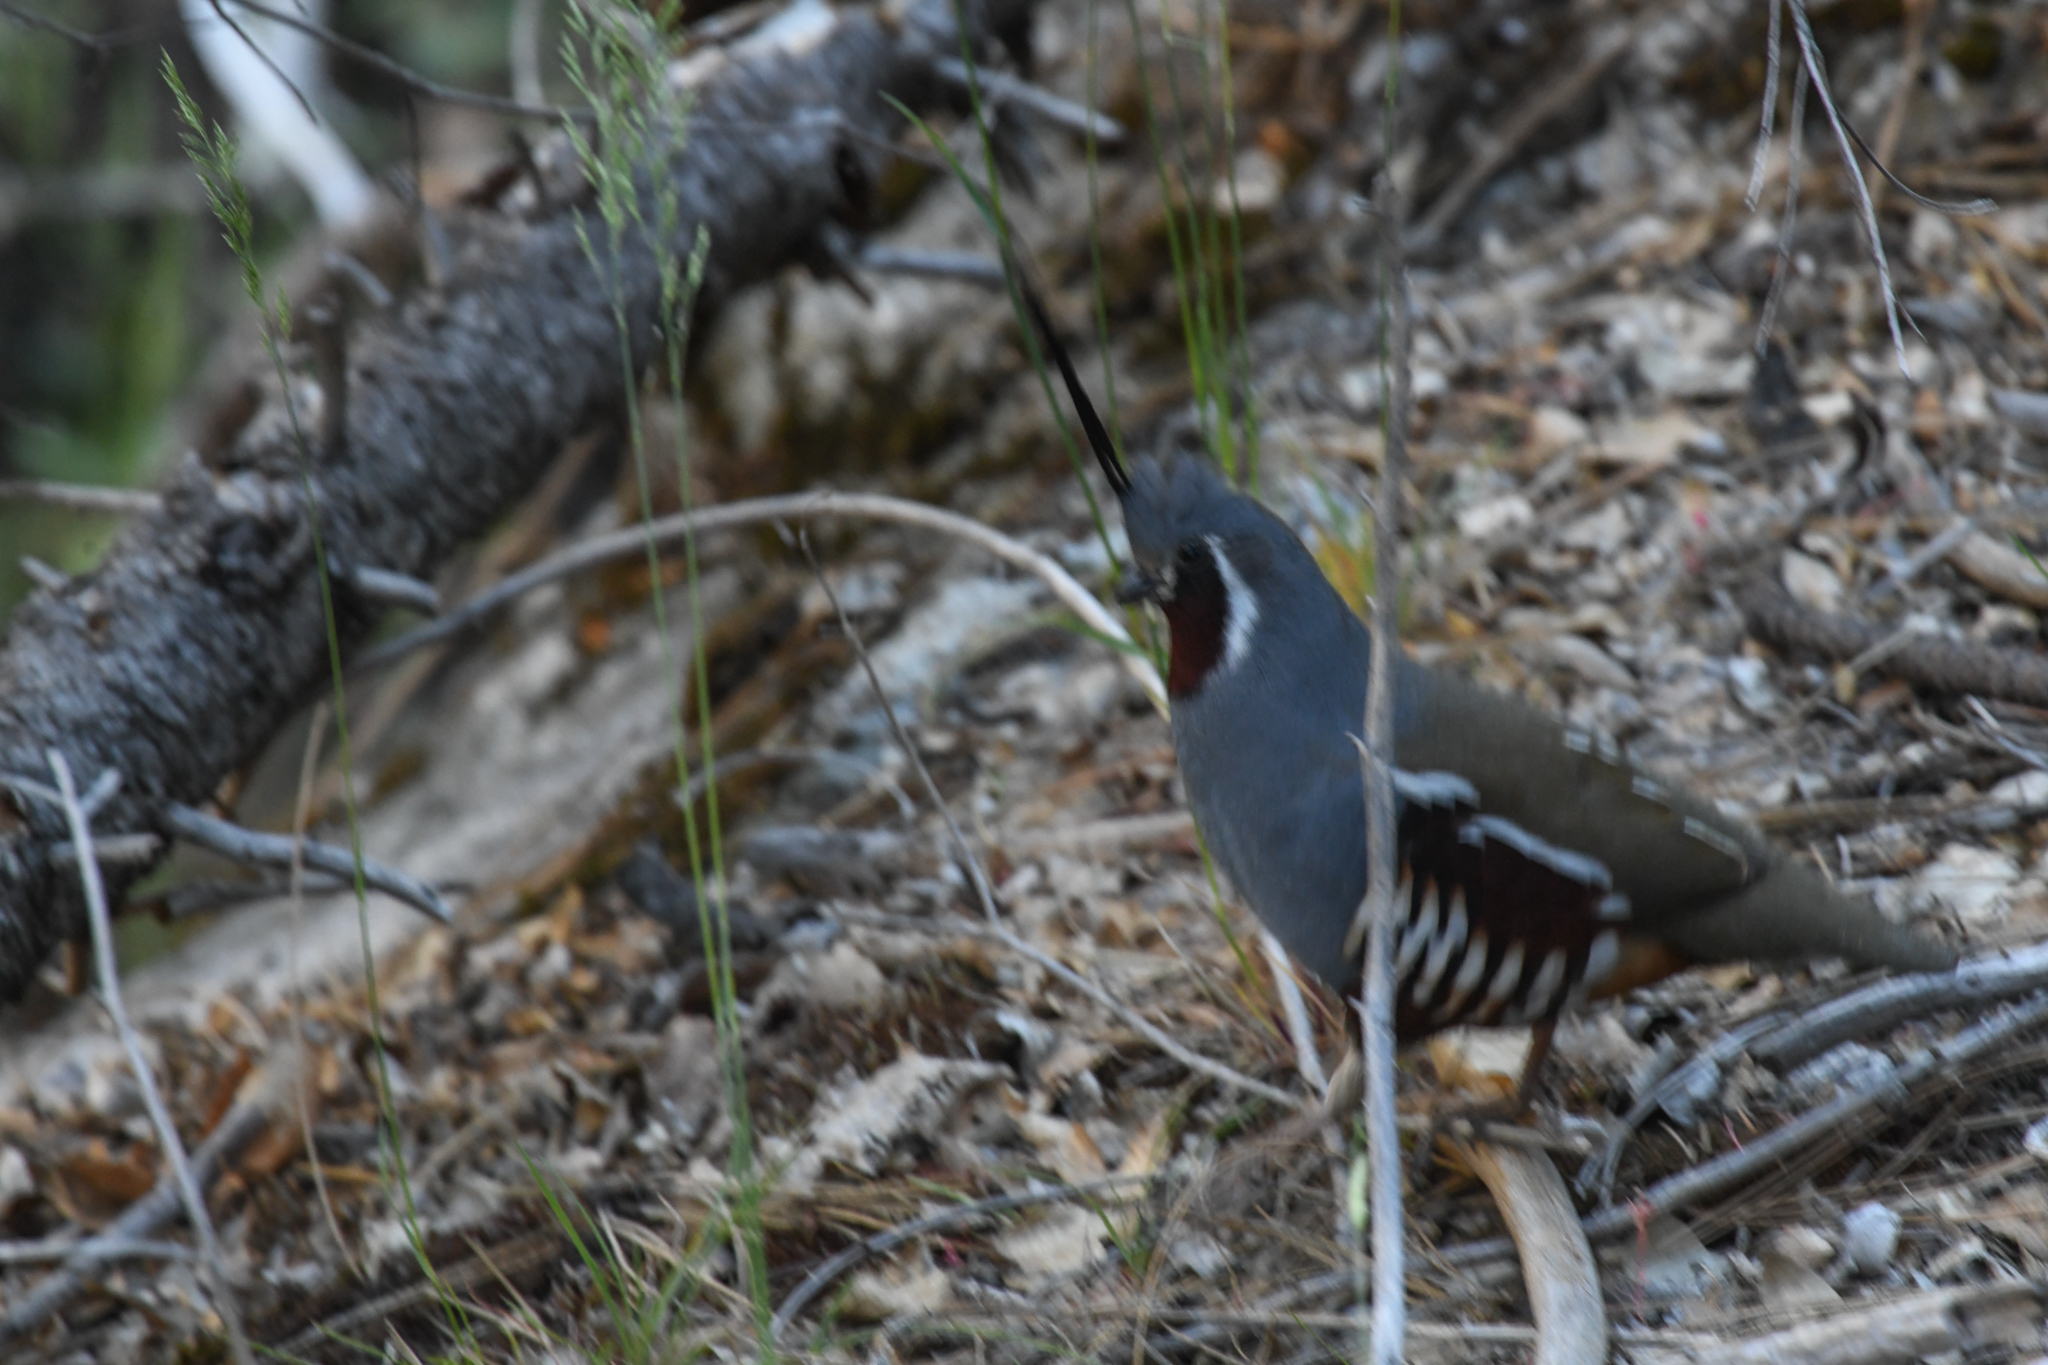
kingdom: Animalia
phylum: Chordata
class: Aves
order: Galliformes
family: Odontophoridae
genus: Oreortyx
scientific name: Oreortyx pictus
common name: Mountain quail
